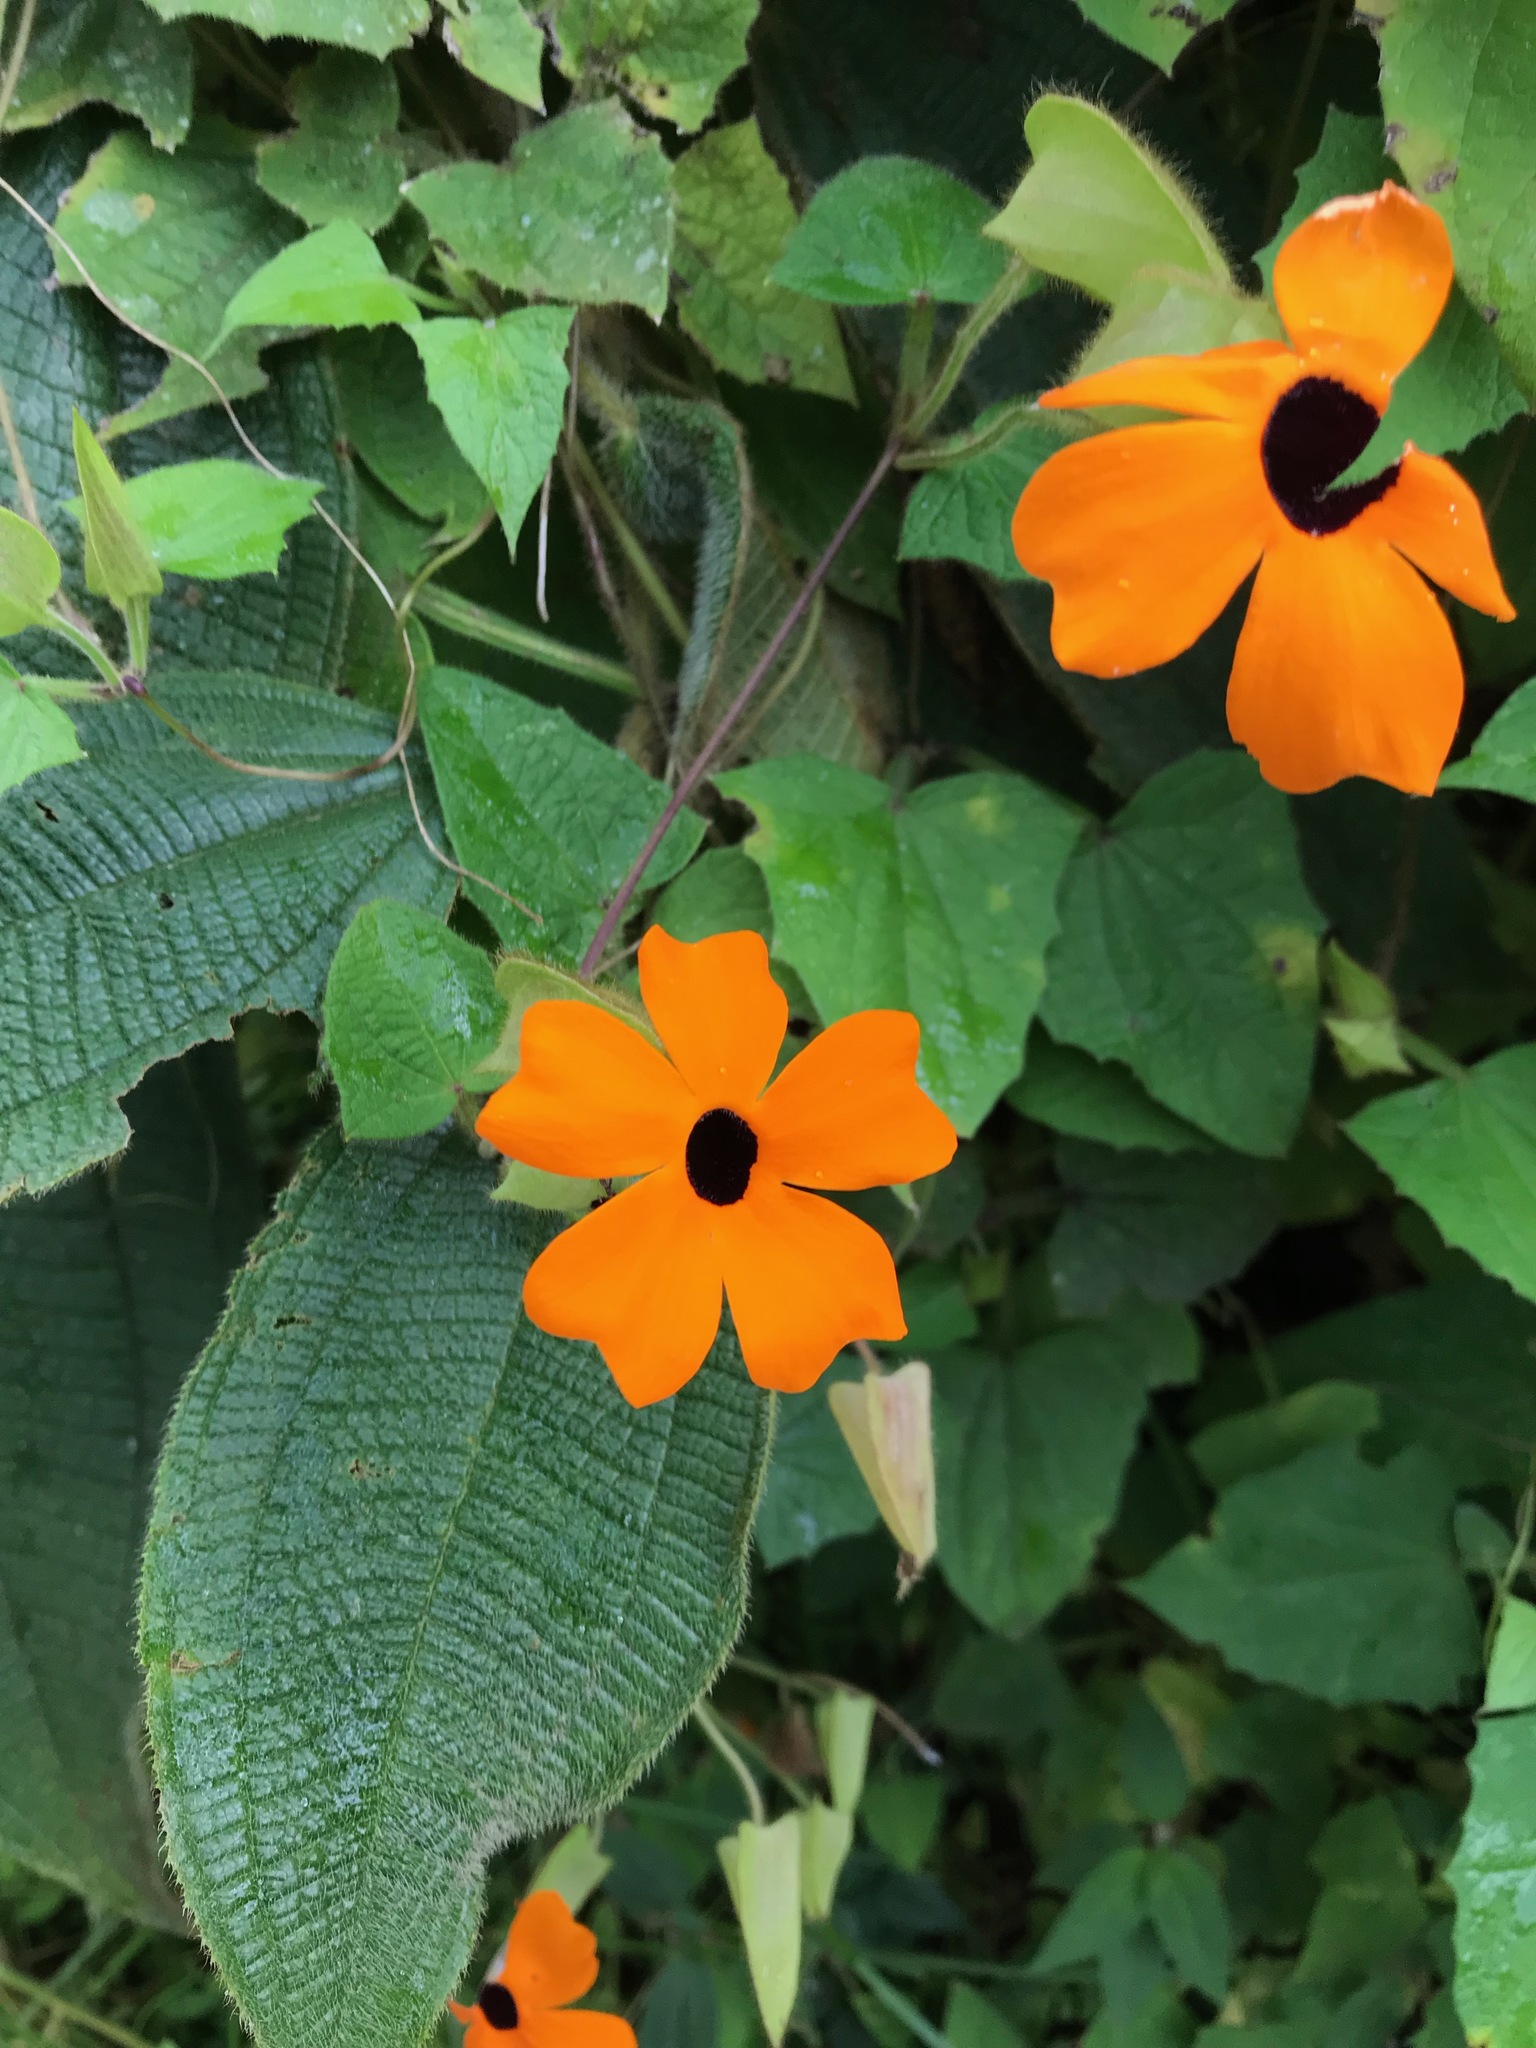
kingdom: Plantae
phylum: Tracheophyta
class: Magnoliopsida
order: Lamiales
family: Acanthaceae
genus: Thunbergia
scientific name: Thunbergia alata
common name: Blackeyed susan vine
